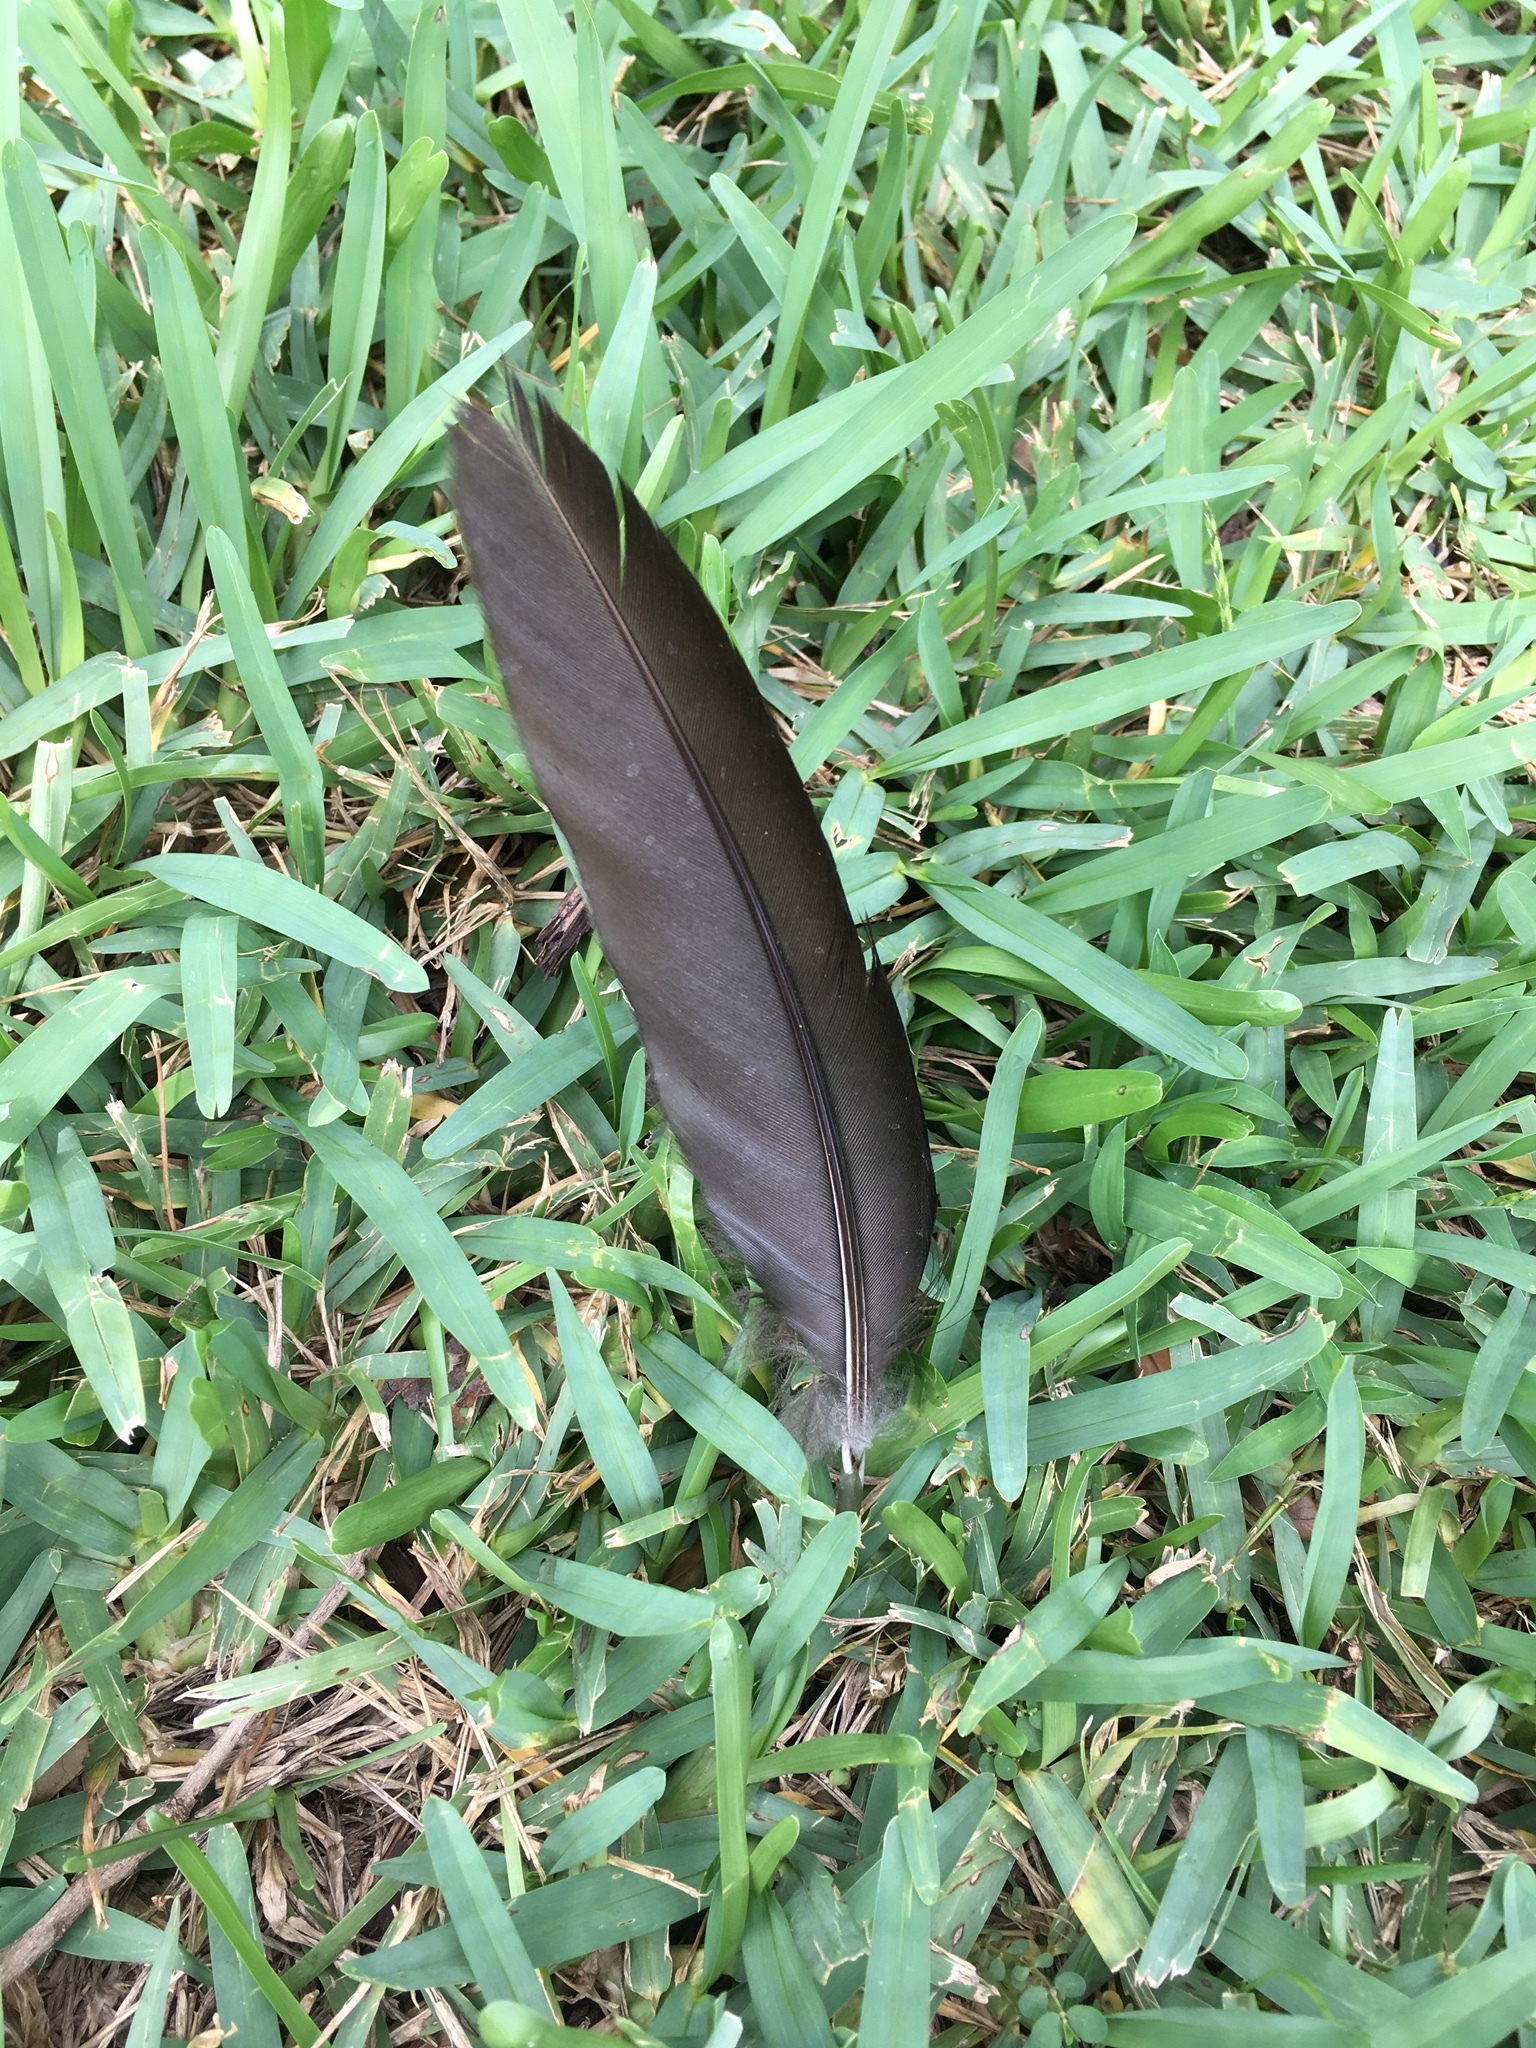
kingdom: Animalia
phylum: Chordata
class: Aves
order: Anseriformes
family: Anatidae
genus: Cairina
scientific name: Cairina moschata
